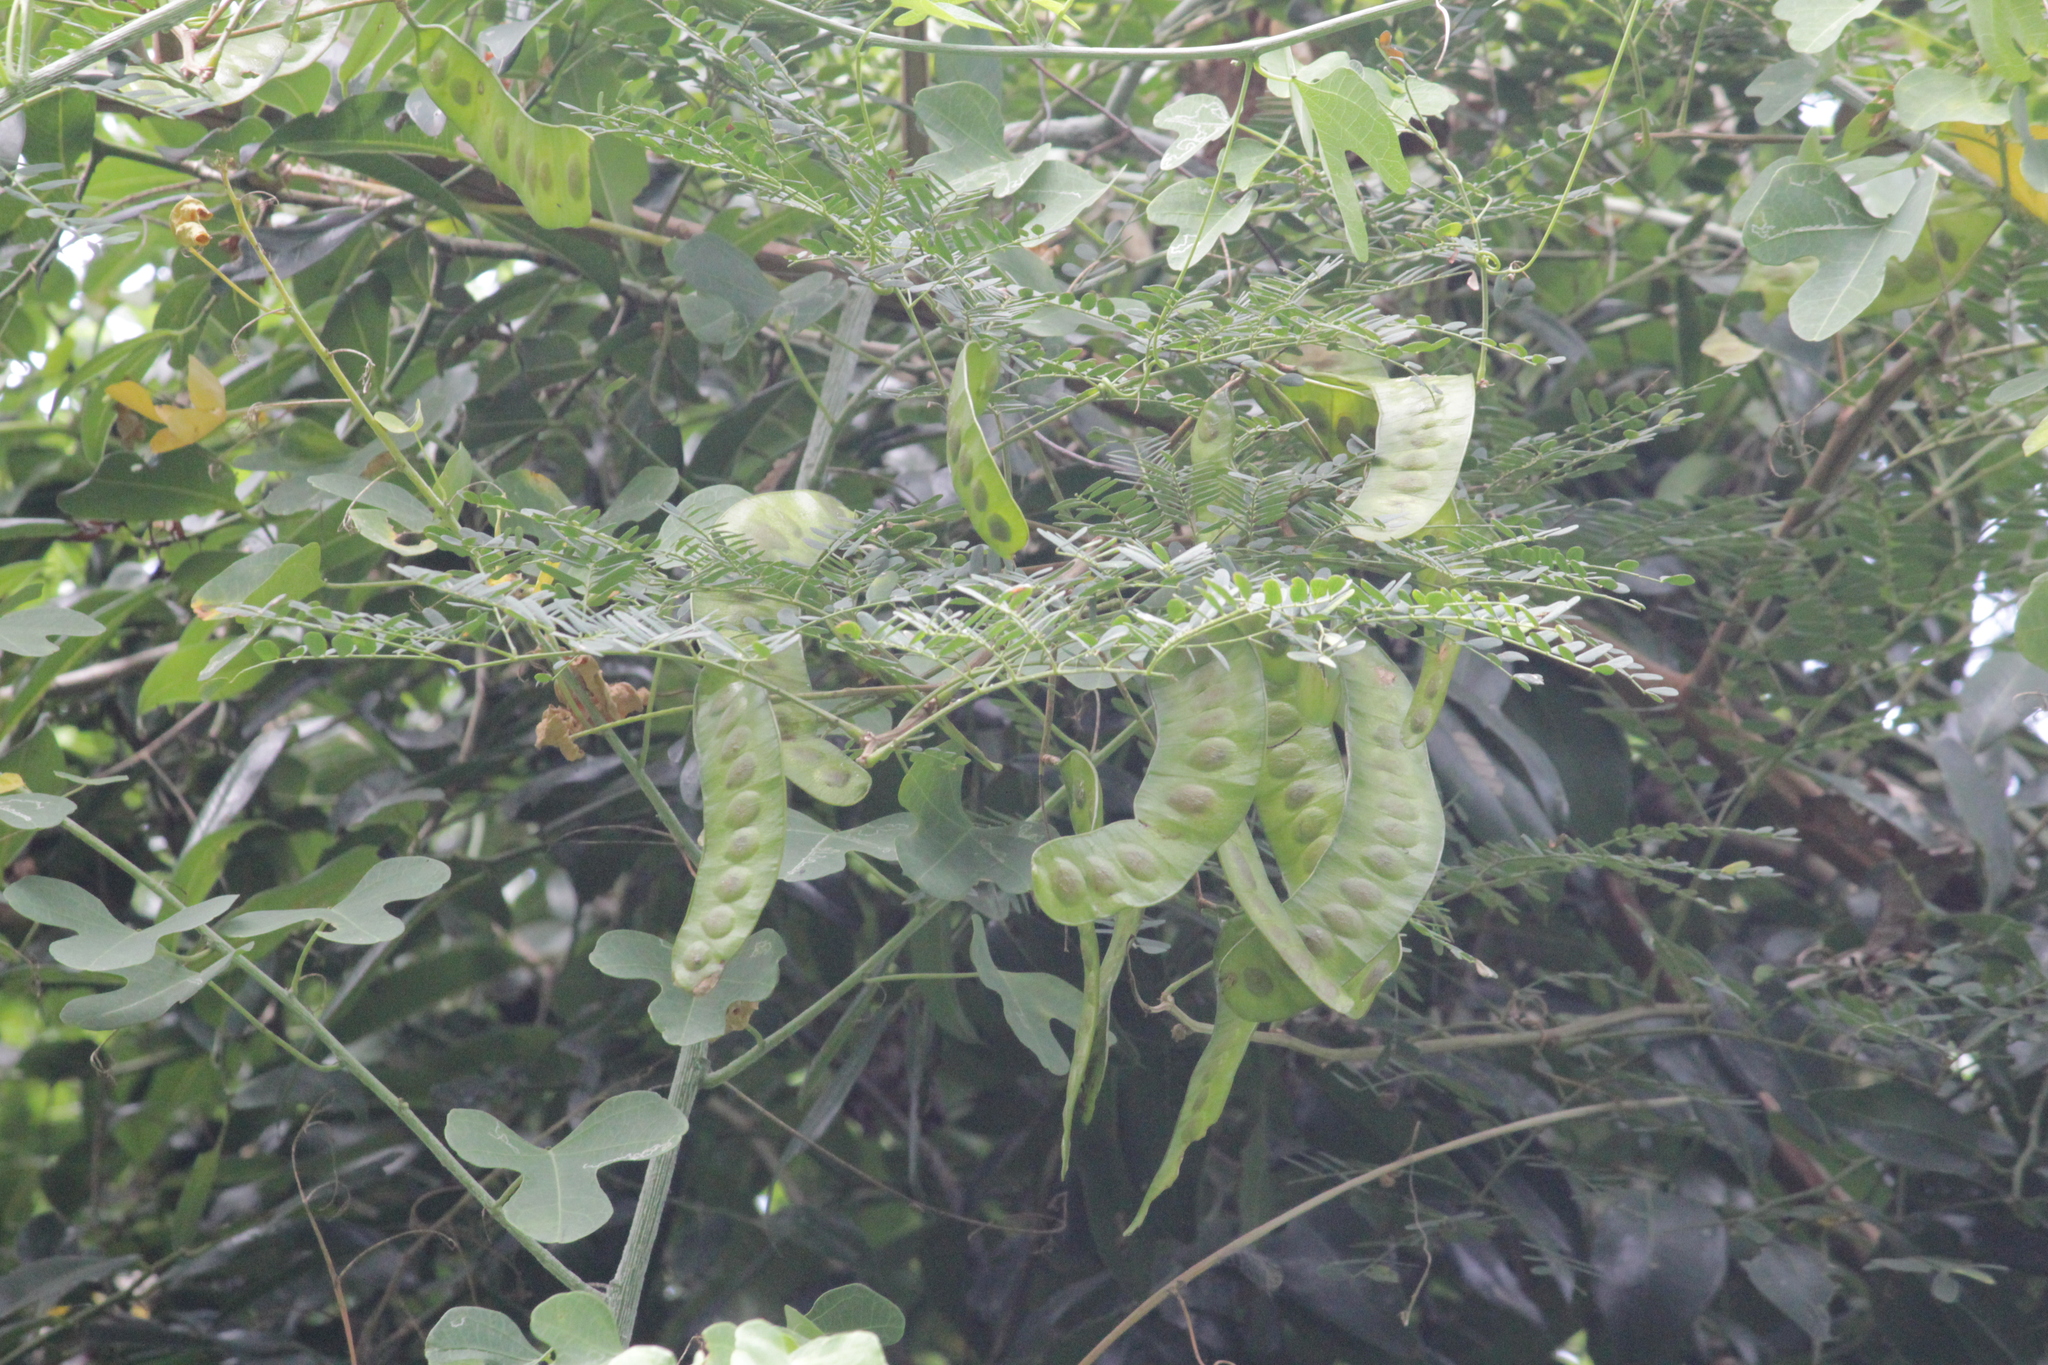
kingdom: Plantae
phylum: Tracheophyta
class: Magnoliopsida
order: Fabales
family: Fabaceae
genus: Adenopodia
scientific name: Adenopodia spicata
